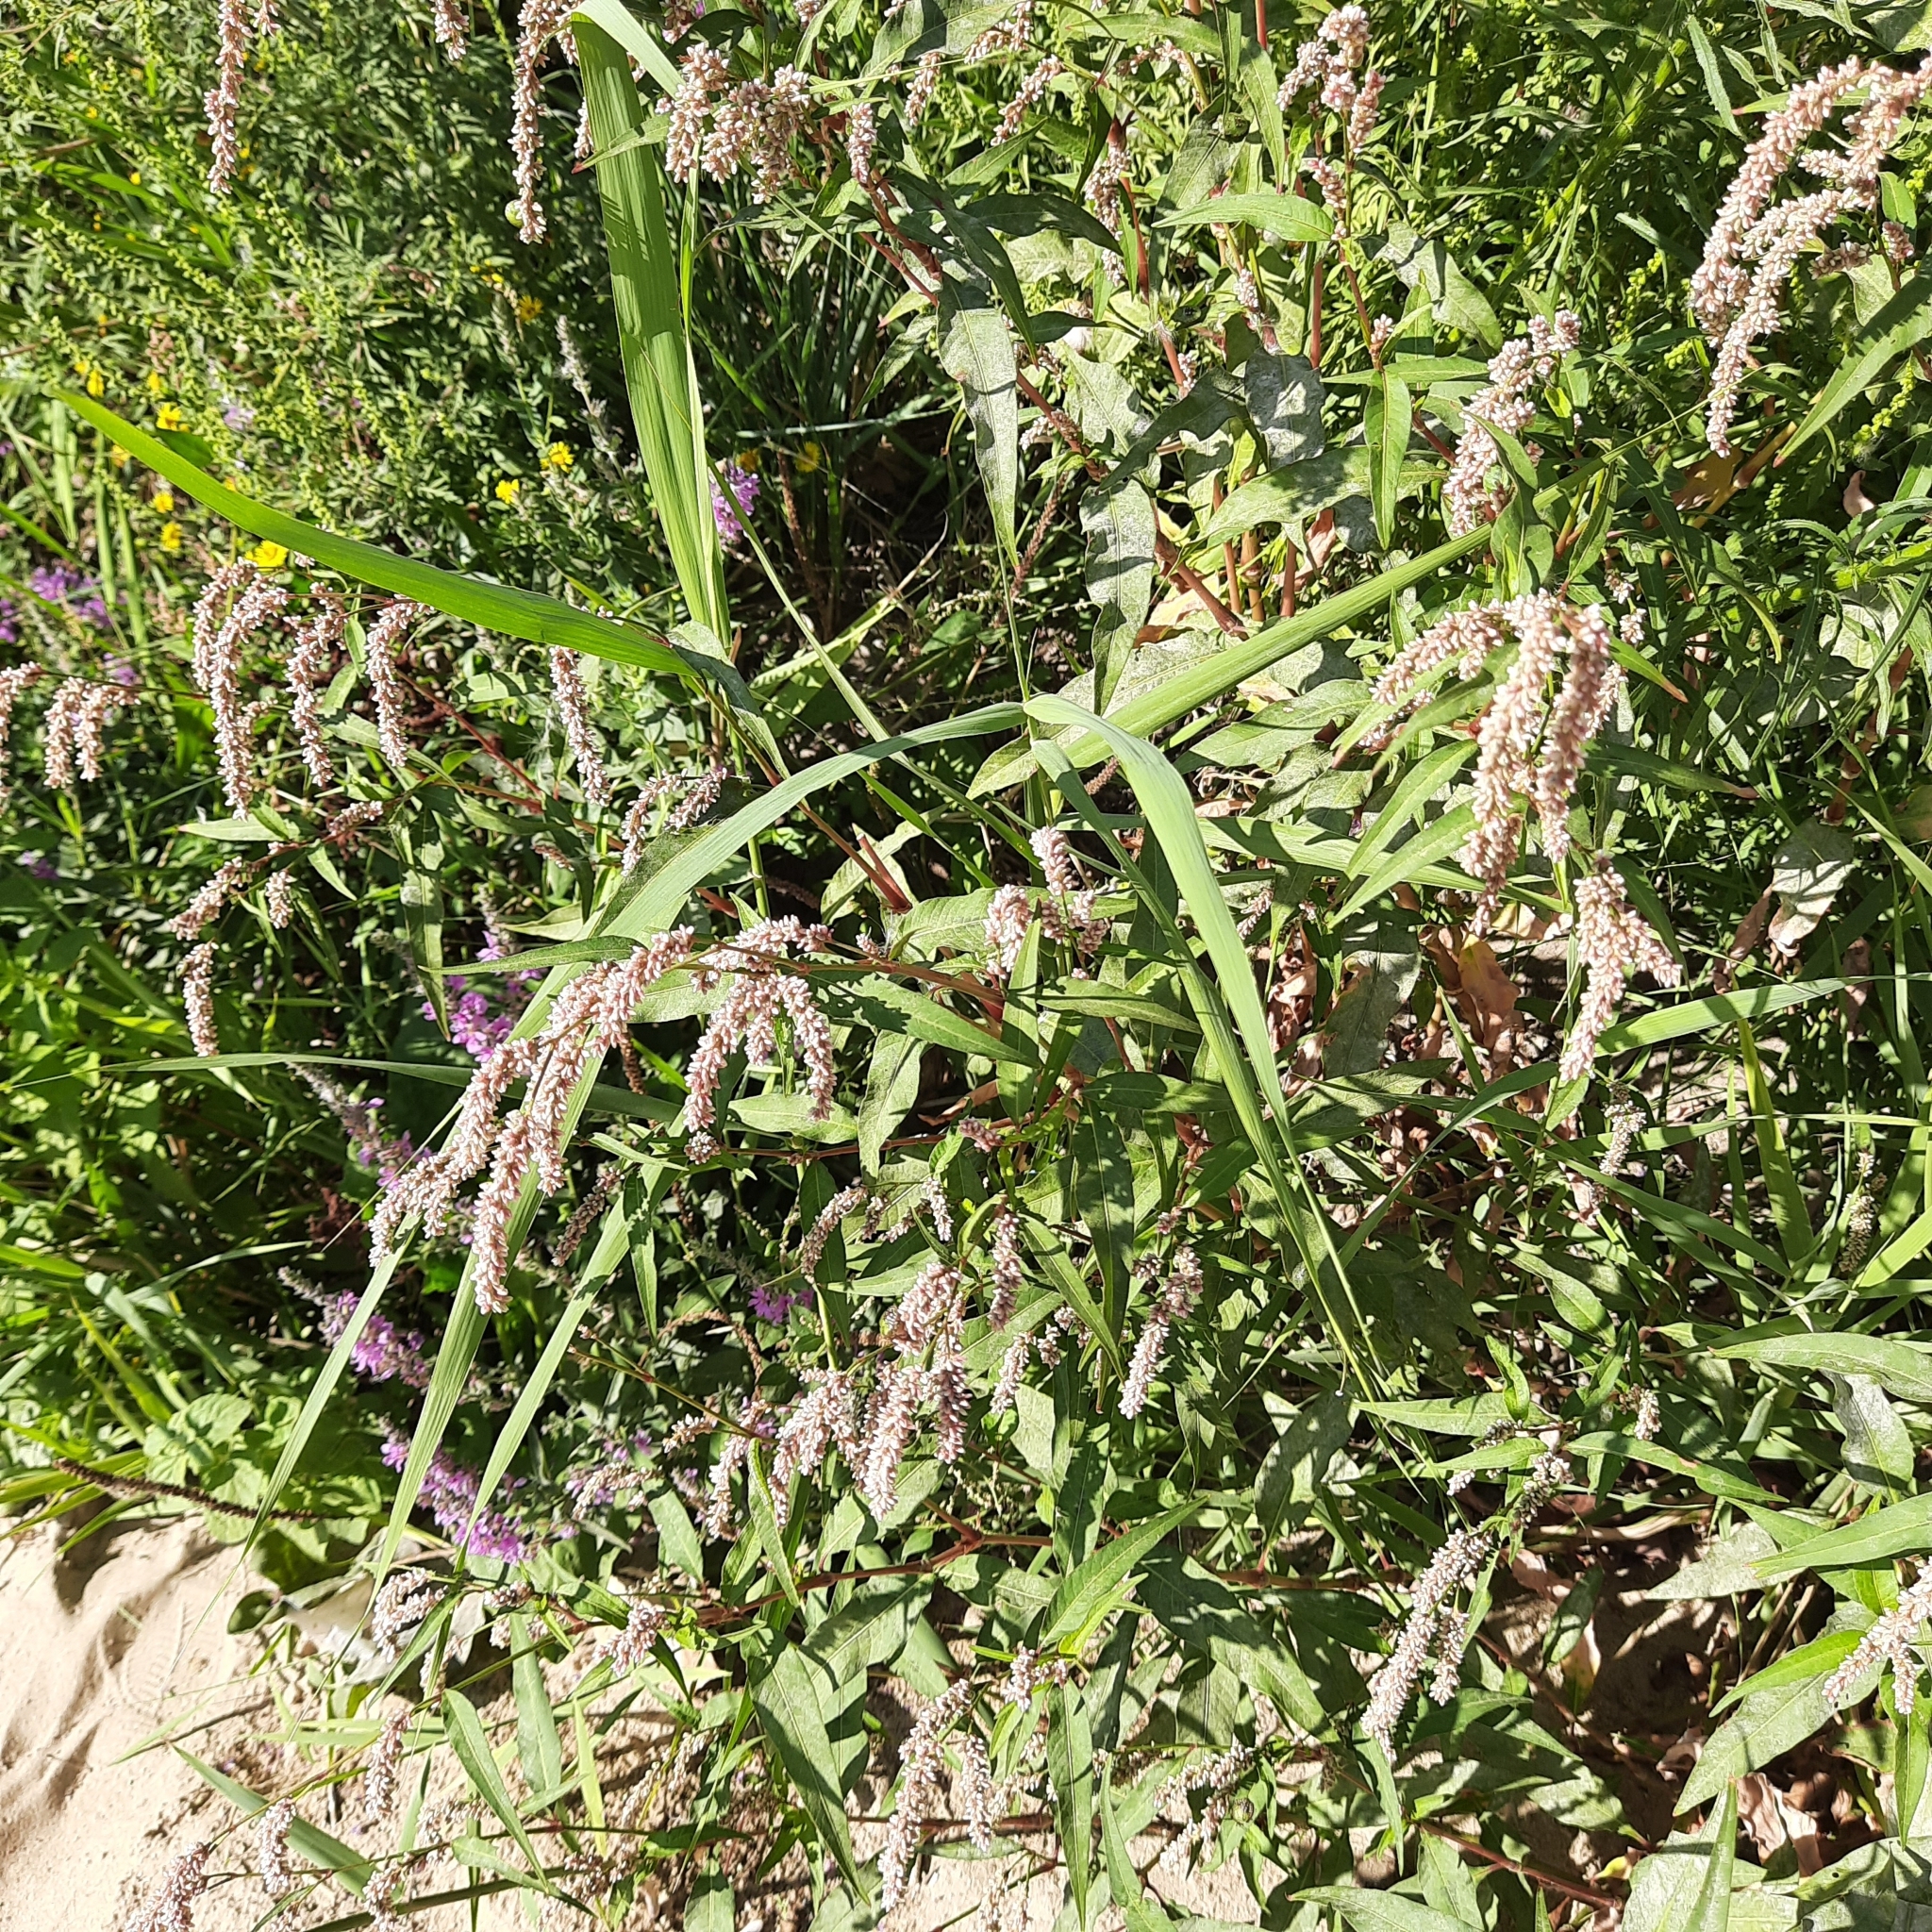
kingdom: Plantae
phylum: Tracheophyta
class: Magnoliopsida
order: Caryophyllales
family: Polygonaceae
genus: Persicaria
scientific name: Persicaria lapathifolia
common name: Curlytop knotweed
